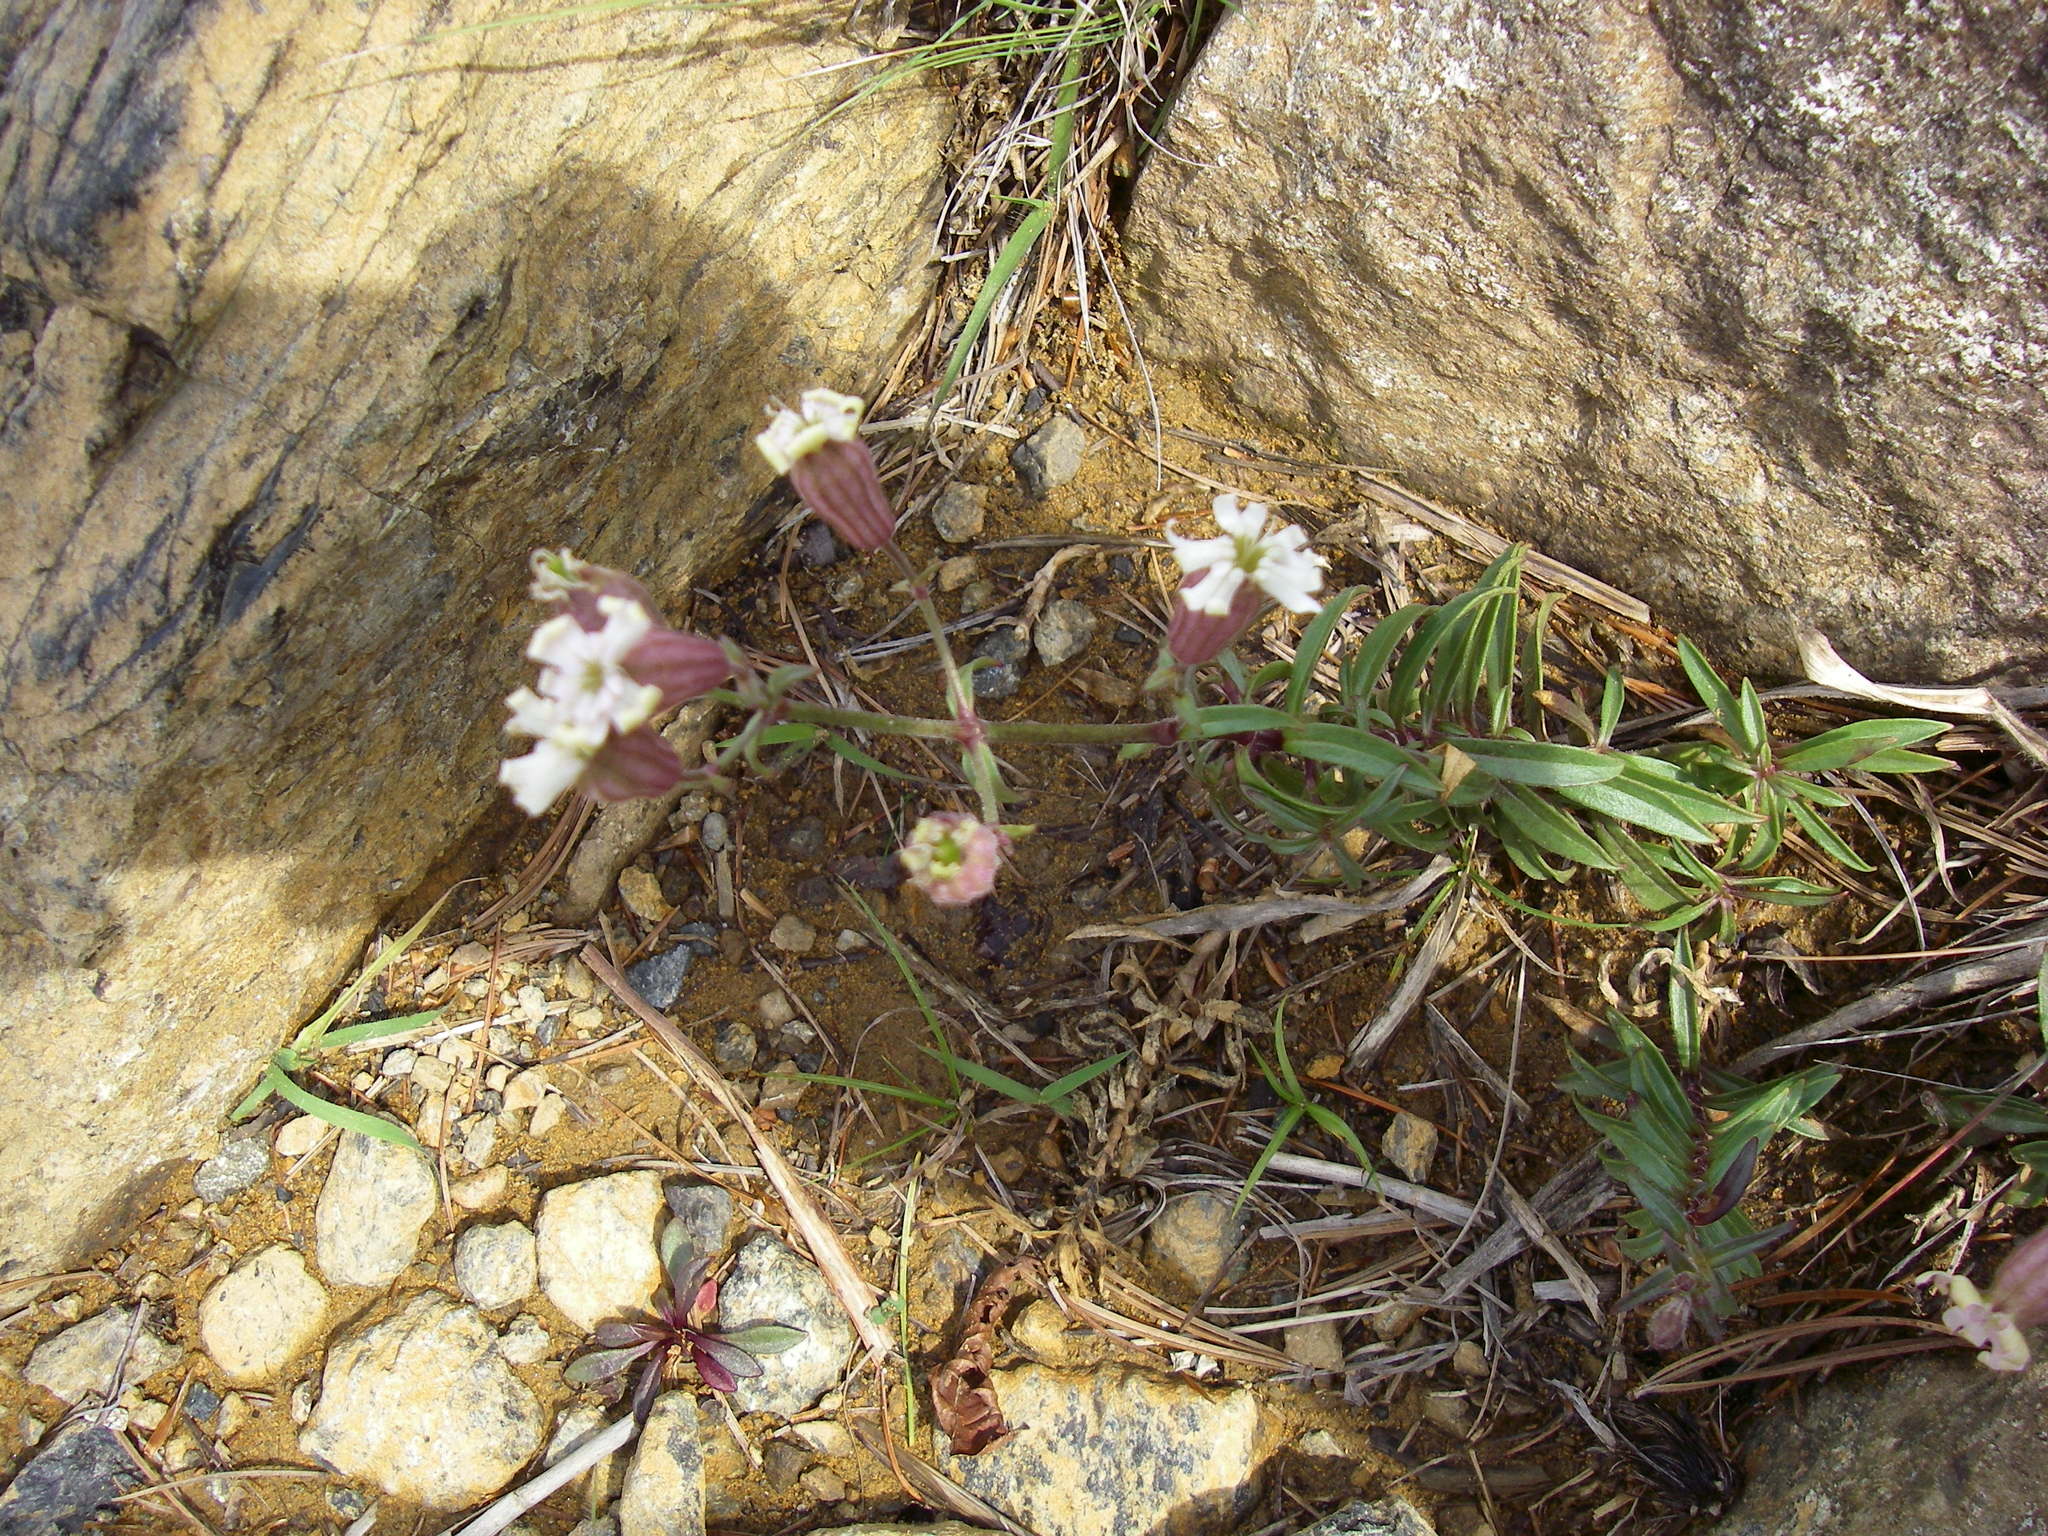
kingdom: Plantae
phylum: Tracheophyta
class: Magnoliopsida
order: Caryophyllales
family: Caryophyllaceae
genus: Silene
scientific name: Silene repens
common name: Pink campion
